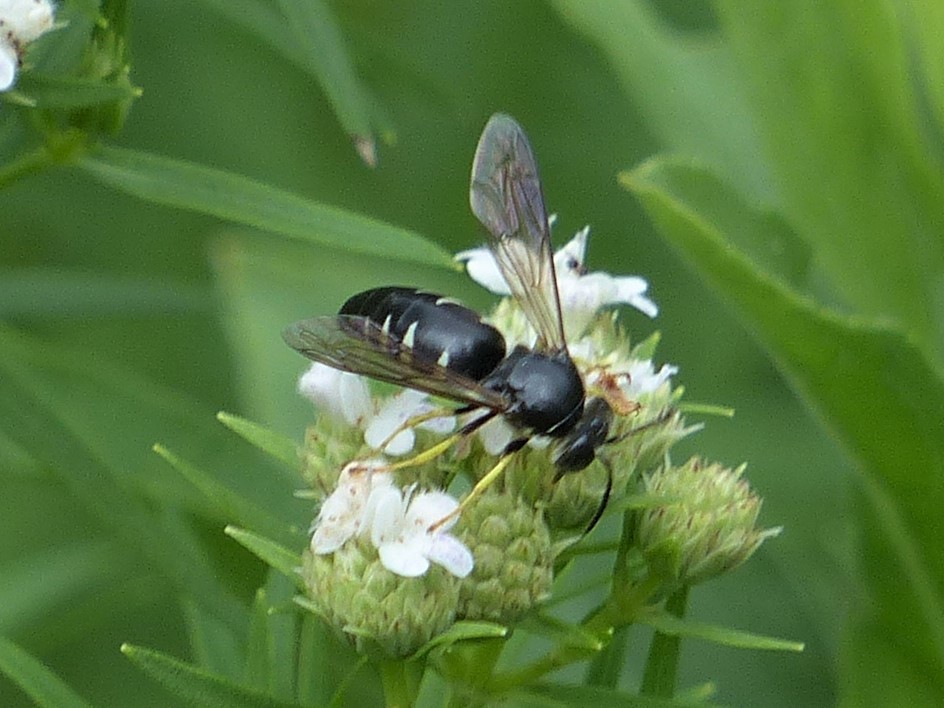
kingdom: Animalia
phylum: Arthropoda
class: Insecta
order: Hymenoptera
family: Crabronidae
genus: Bicyrtes
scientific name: Bicyrtes quadrifasciatus
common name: Four-banded stink bug hunter wasp
